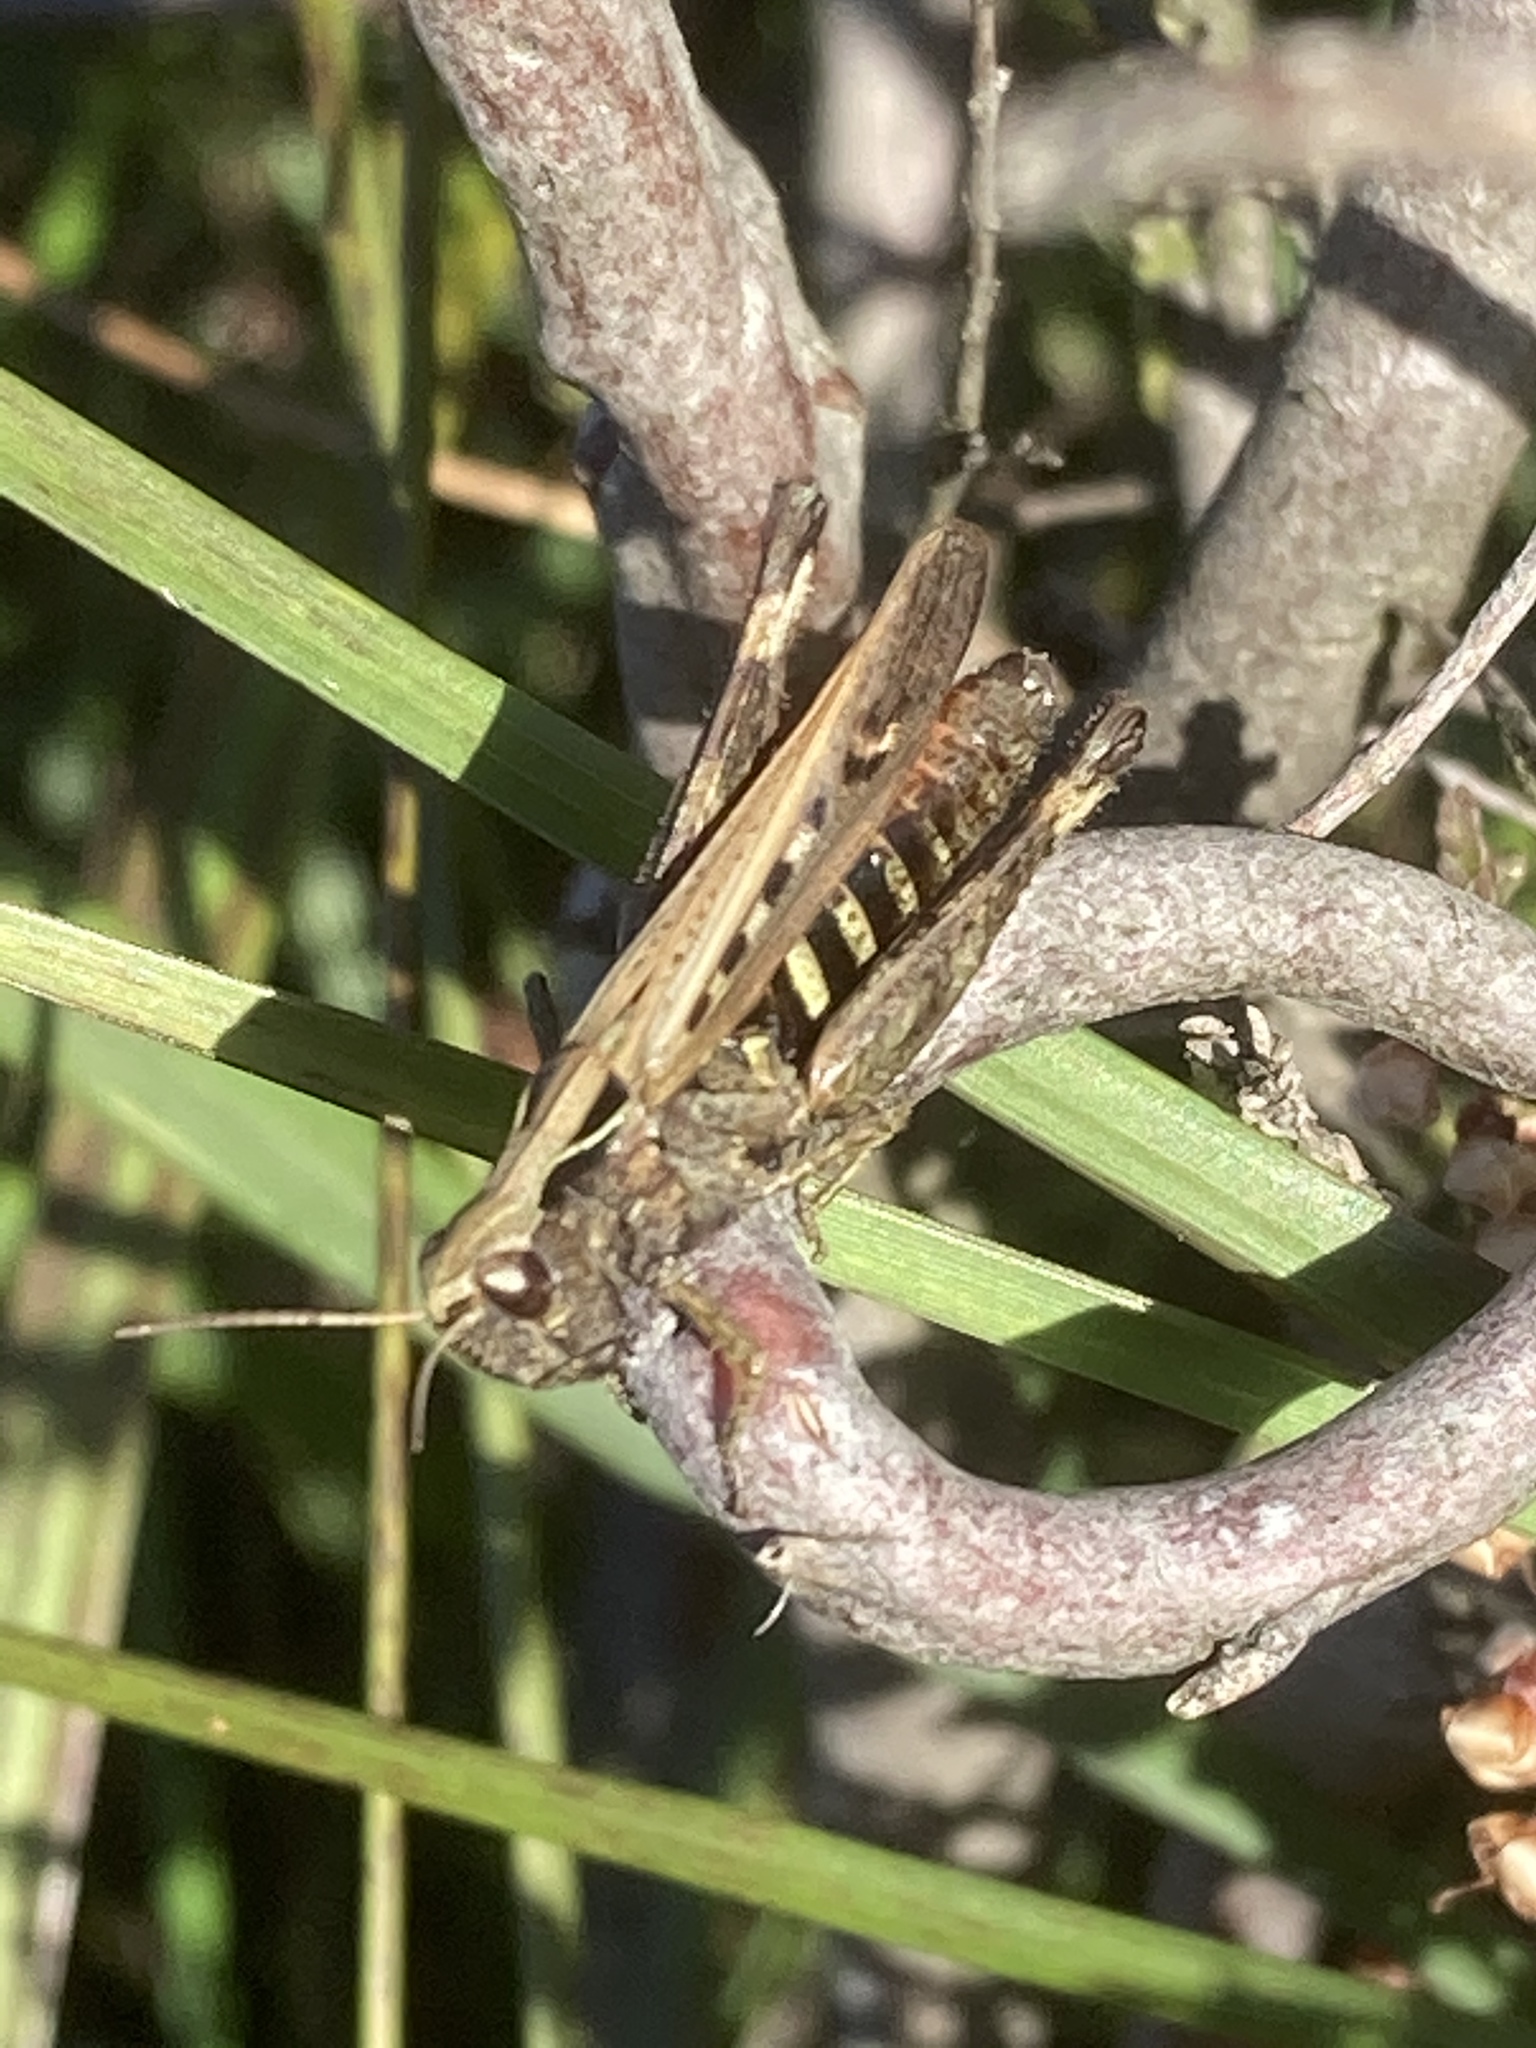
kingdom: Animalia
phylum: Arthropoda
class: Insecta
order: Orthoptera
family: Acrididae
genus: Omocestus
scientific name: Omocestus rufipes
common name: Woodland grasshopper
